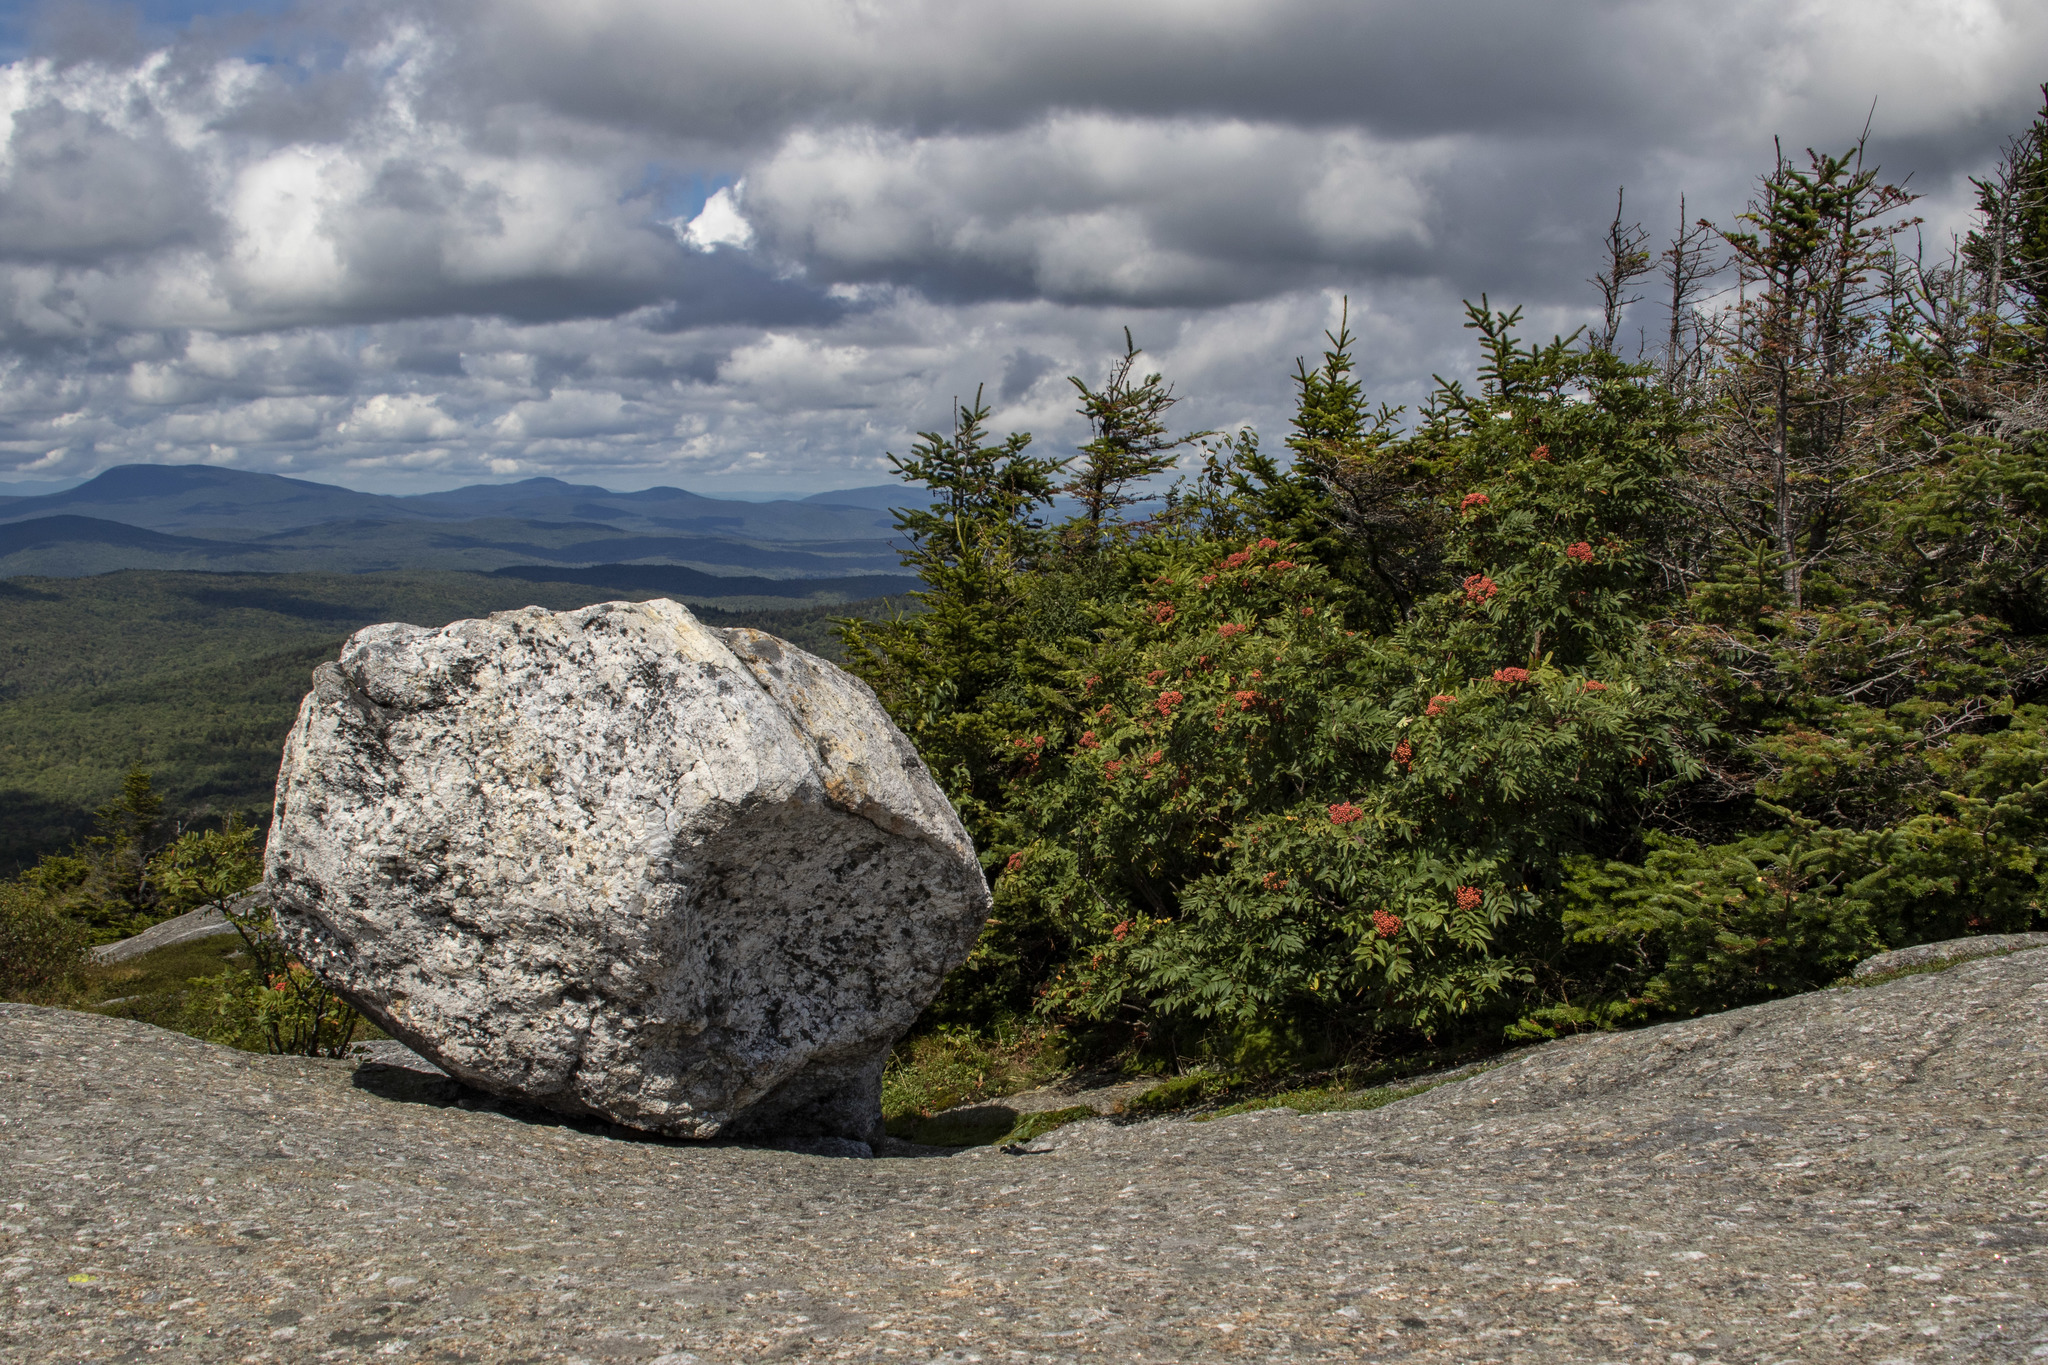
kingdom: Plantae
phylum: Tracheophyta
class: Magnoliopsida
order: Rosales
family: Rosaceae
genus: Sorbus
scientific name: Sorbus americana
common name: American mountain-ash
